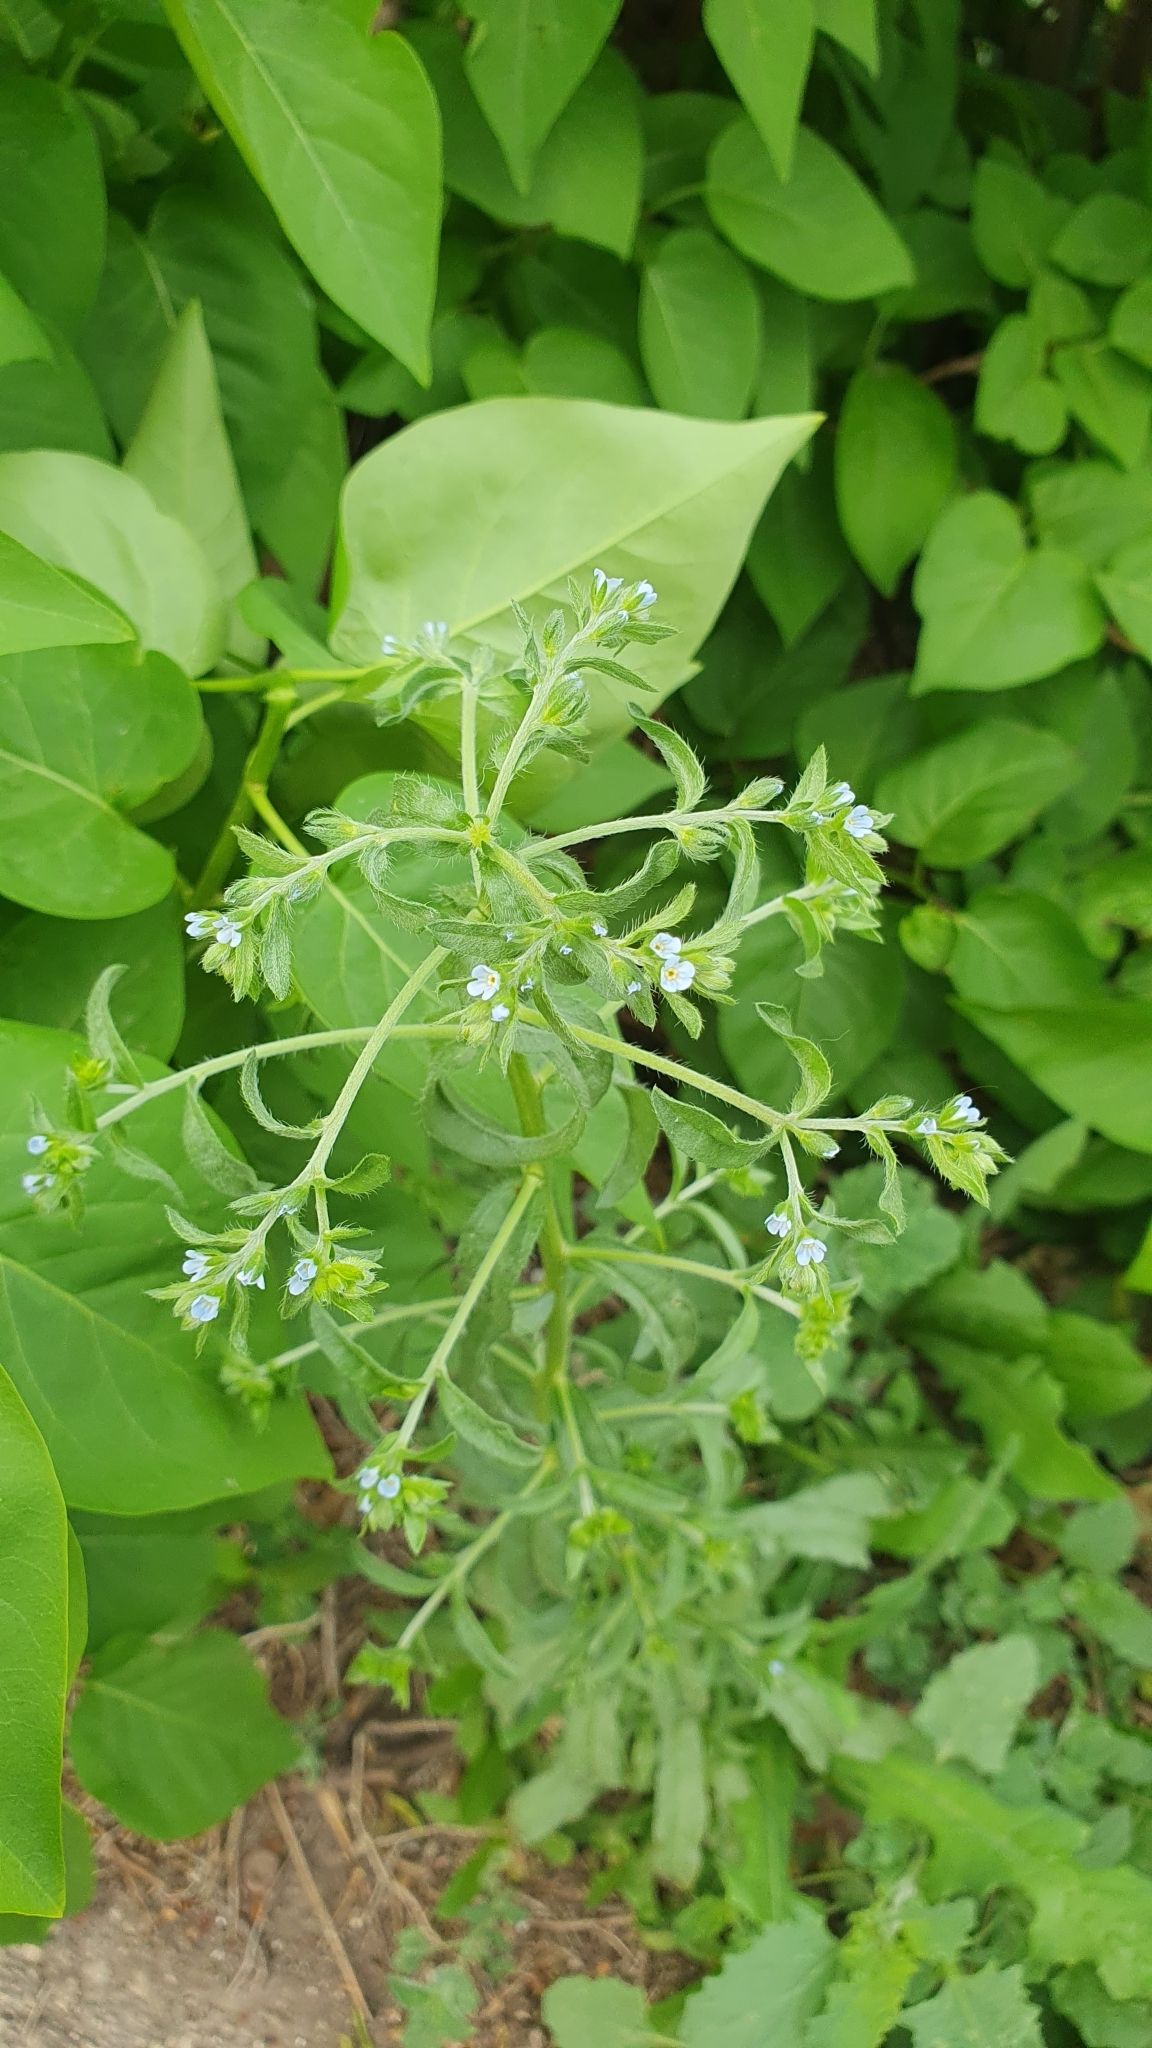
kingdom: Plantae
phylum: Tracheophyta
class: Magnoliopsida
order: Boraginales
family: Boraginaceae
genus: Lappula
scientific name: Lappula squarrosa
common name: European stickseed
